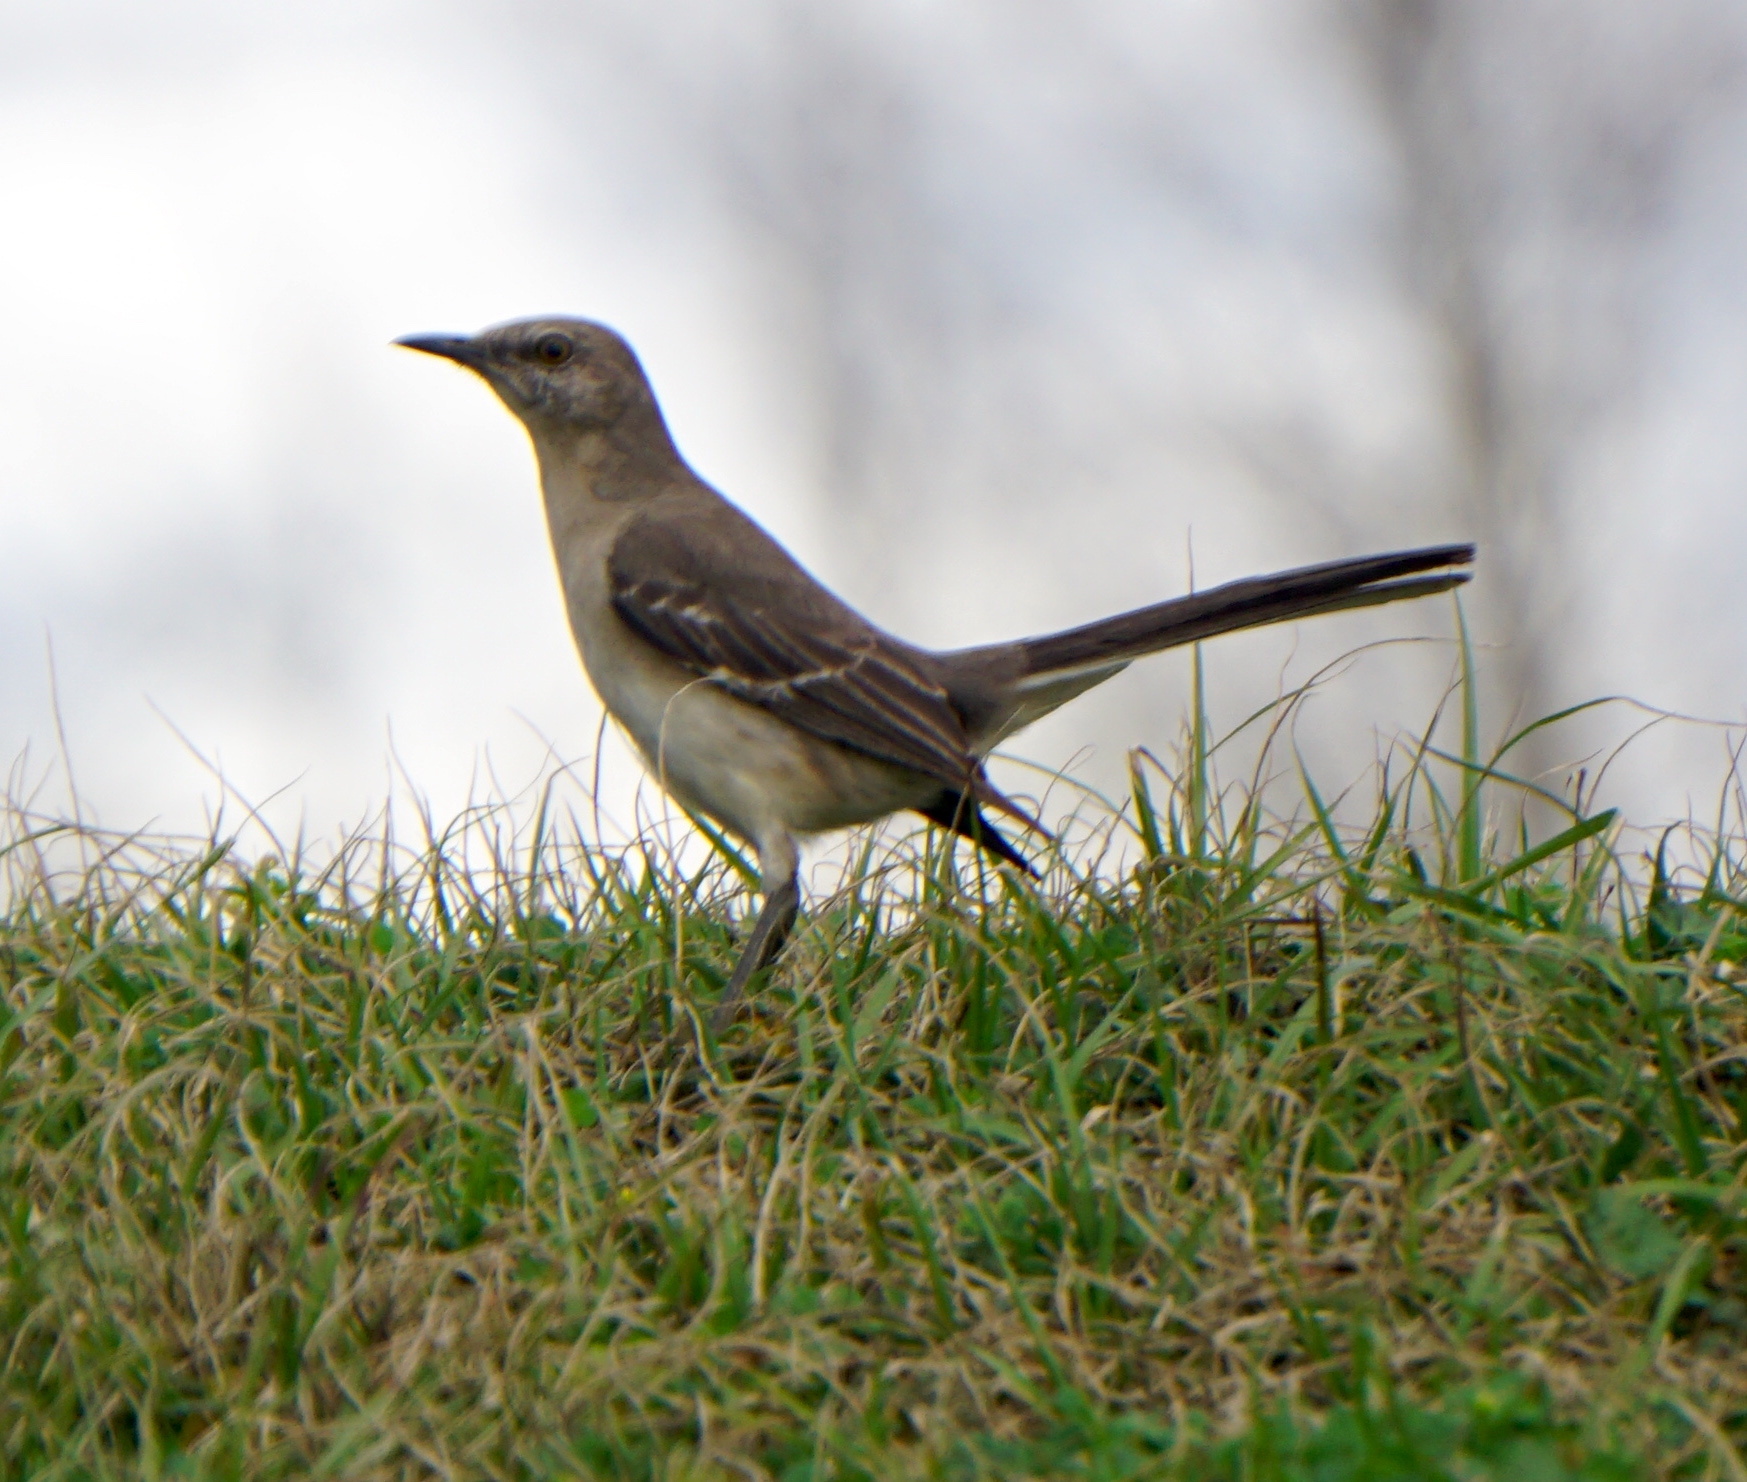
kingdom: Animalia
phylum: Chordata
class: Aves
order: Passeriformes
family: Mimidae
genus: Mimus
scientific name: Mimus polyglottos
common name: Northern mockingbird
